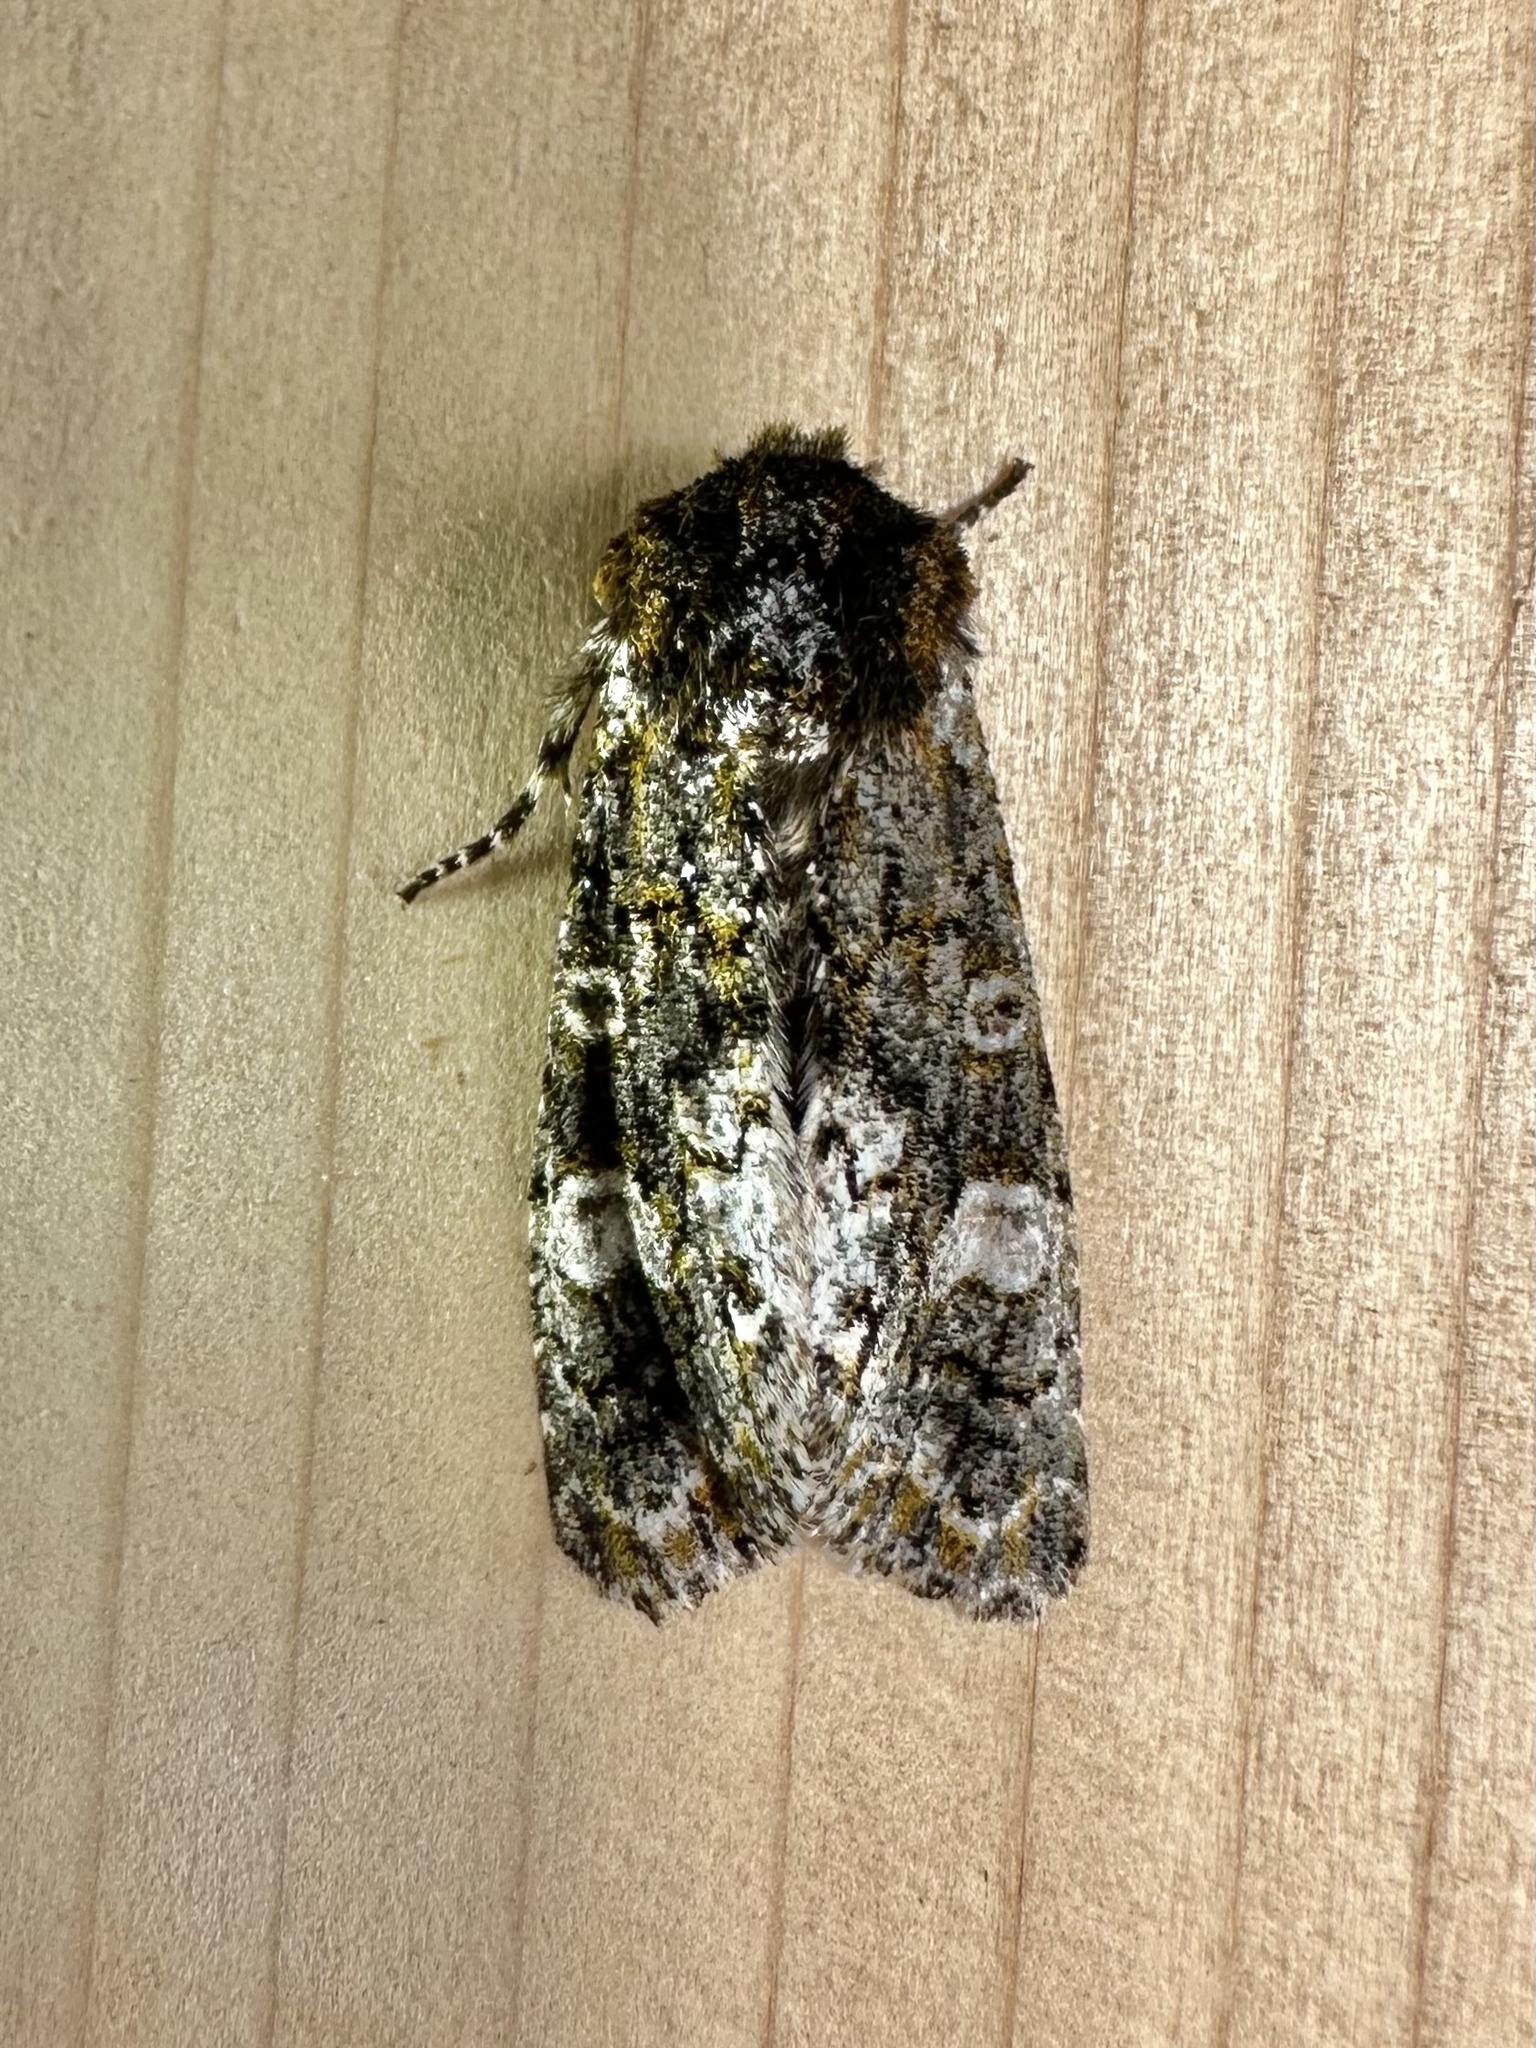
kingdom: Animalia
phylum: Arthropoda
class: Insecta
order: Lepidoptera
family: Noctuidae
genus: Psaphida
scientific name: Psaphida grotei
